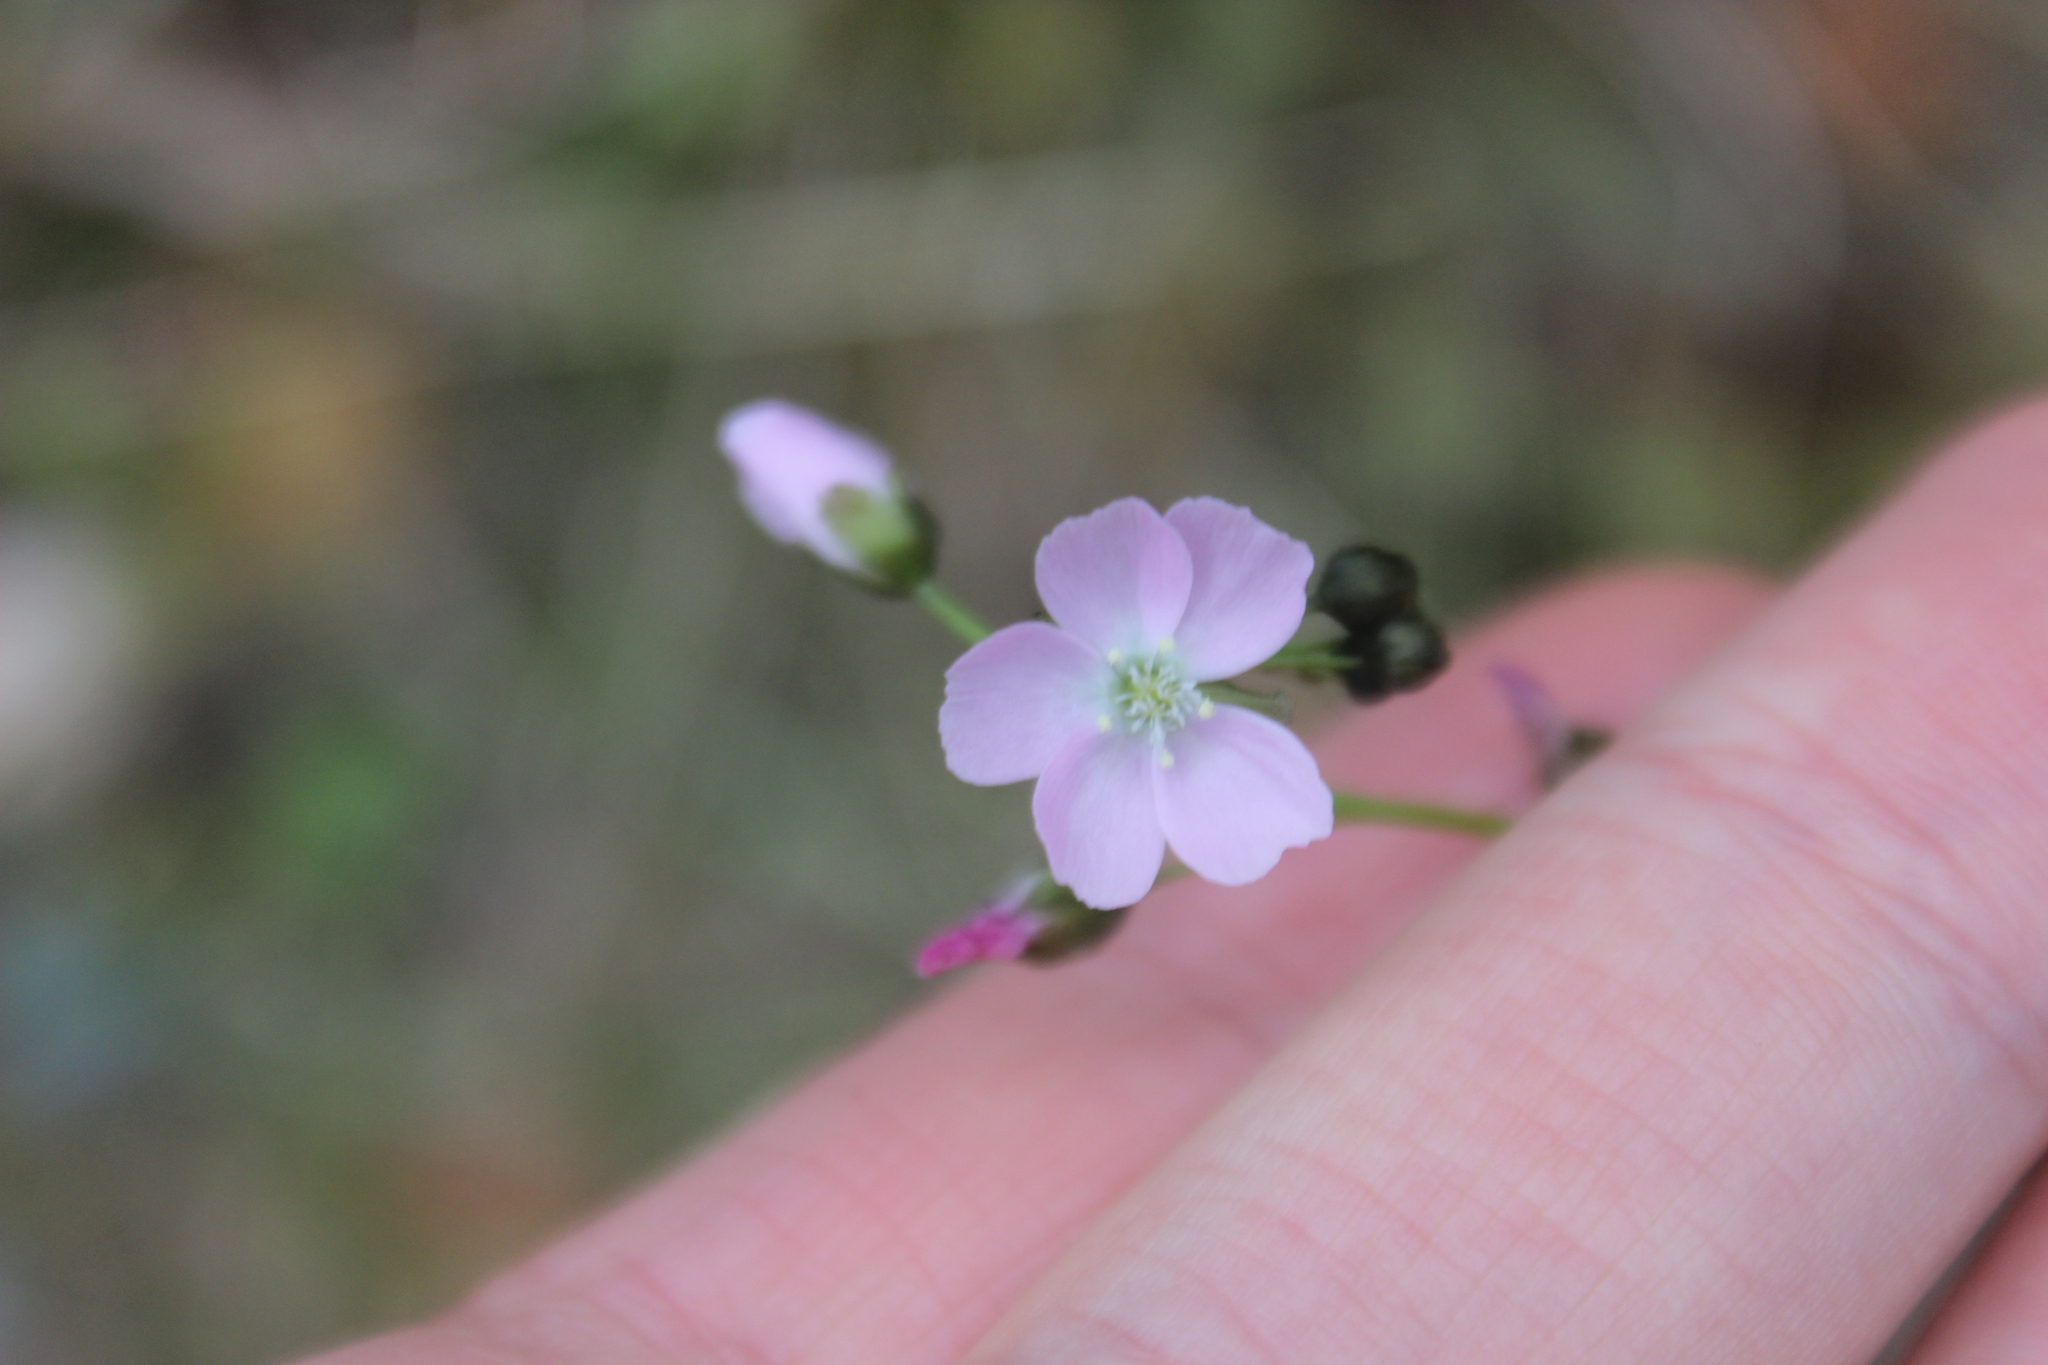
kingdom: Plantae
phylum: Tracheophyta
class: Magnoliopsida
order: Caryophyllales
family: Droseraceae
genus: Drosera
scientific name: Drosera peltata
